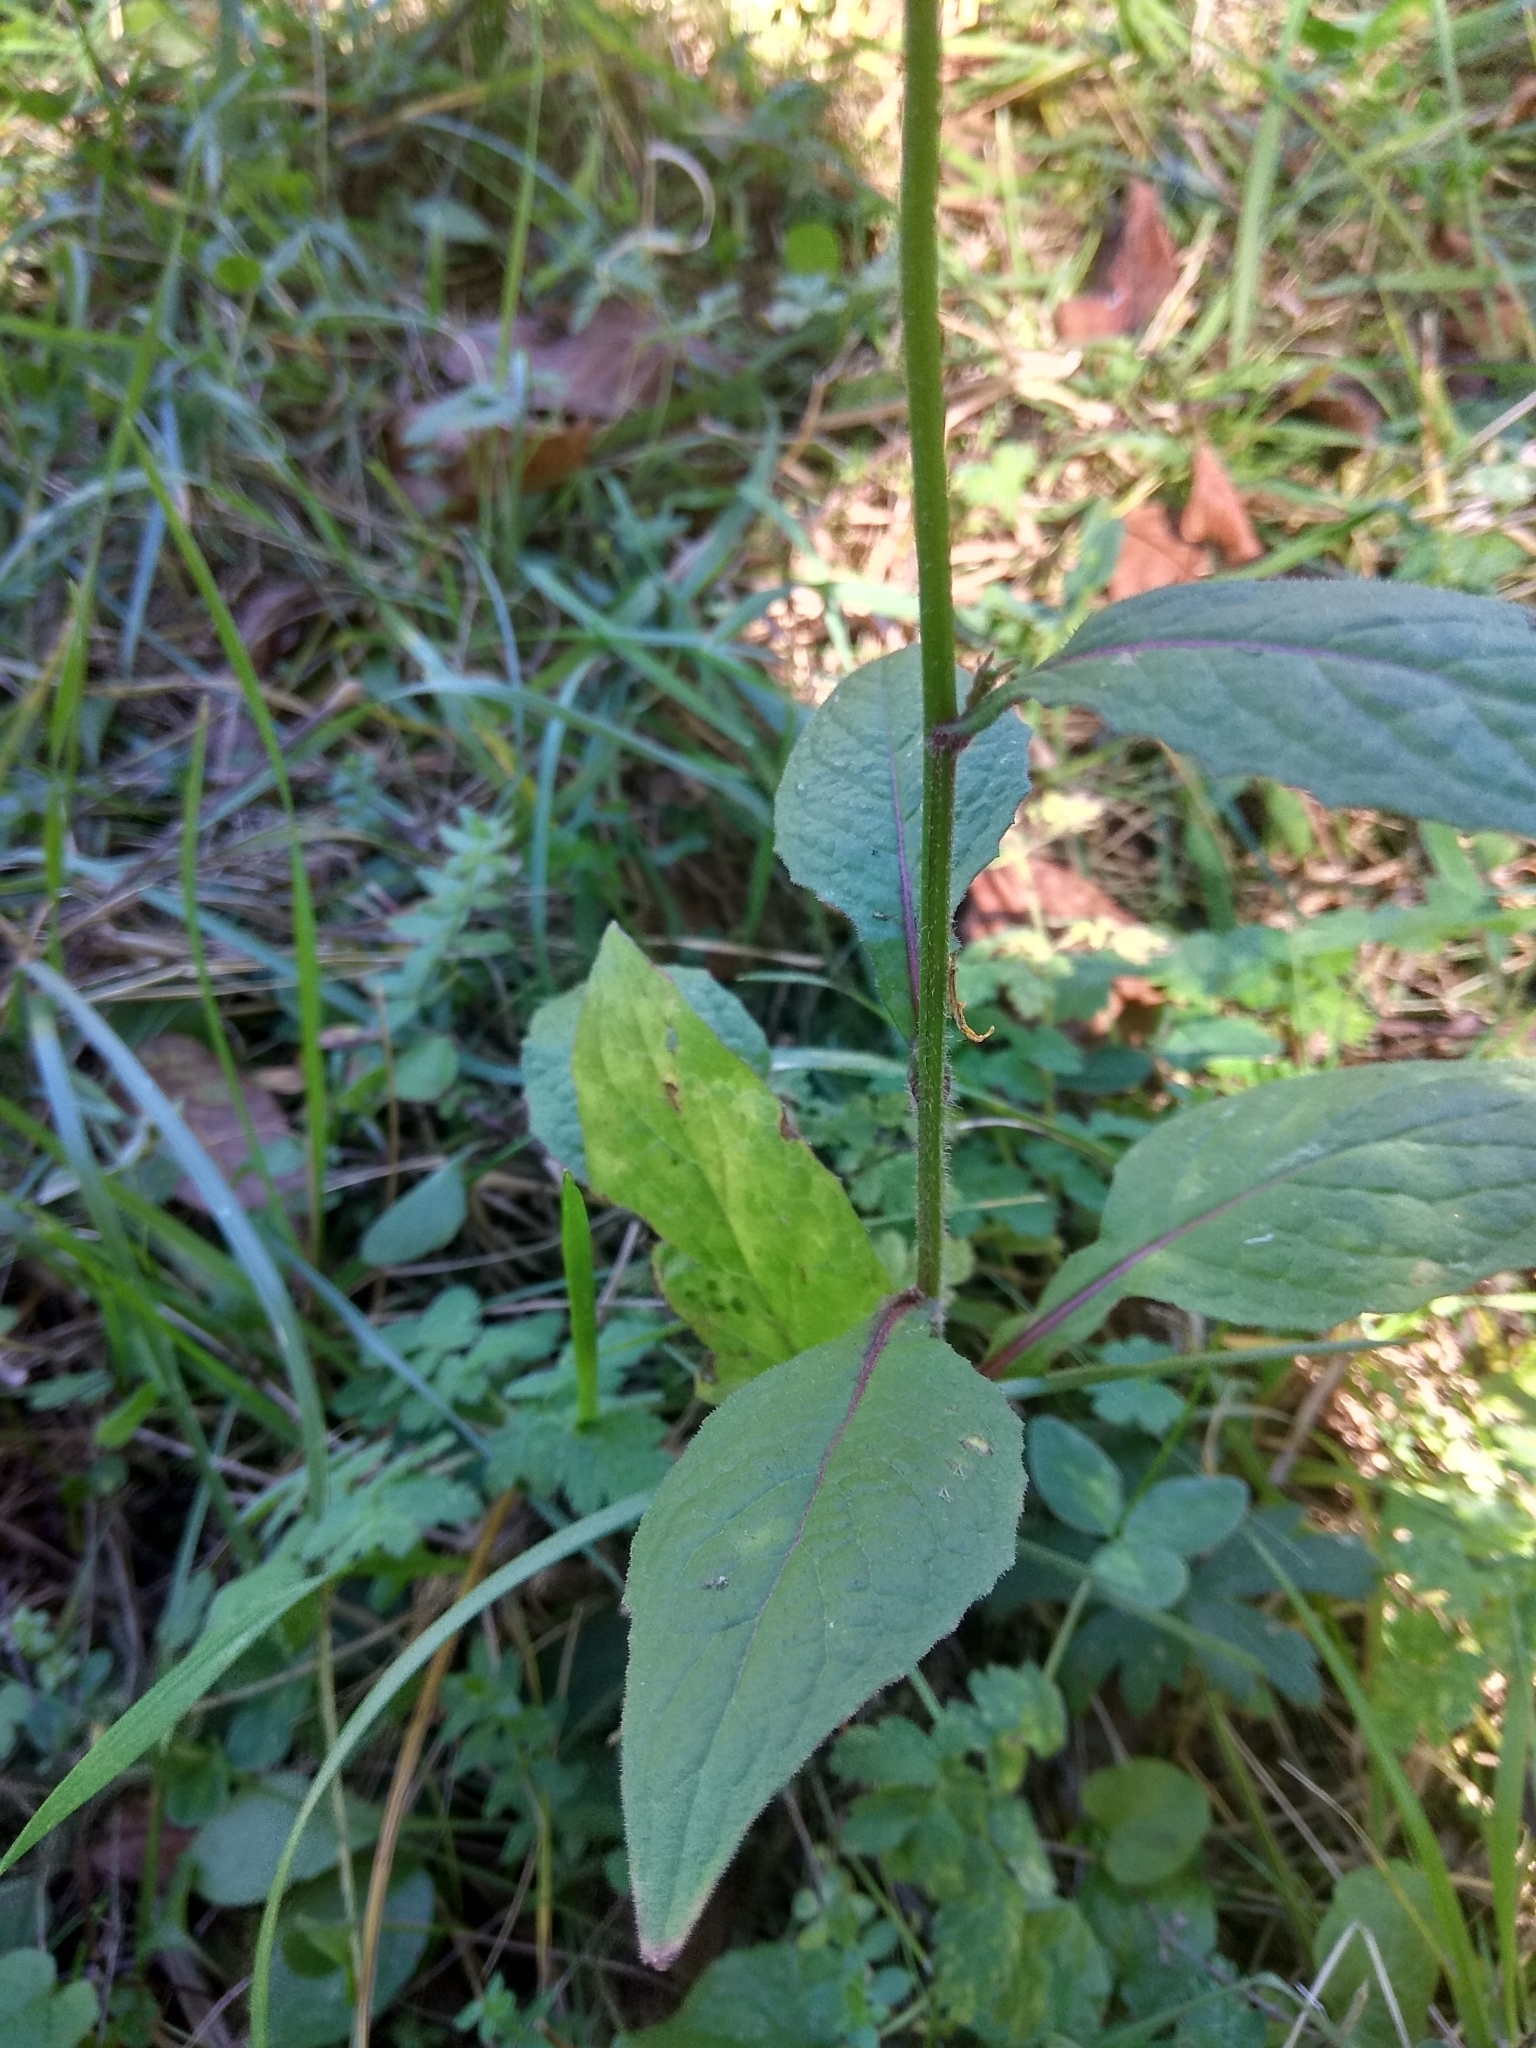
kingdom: Plantae
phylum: Tracheophyta
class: Magnoliopsida
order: Asterales
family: Asteraceae
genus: Lapsana
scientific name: Lapsana communis
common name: Nipplewort
